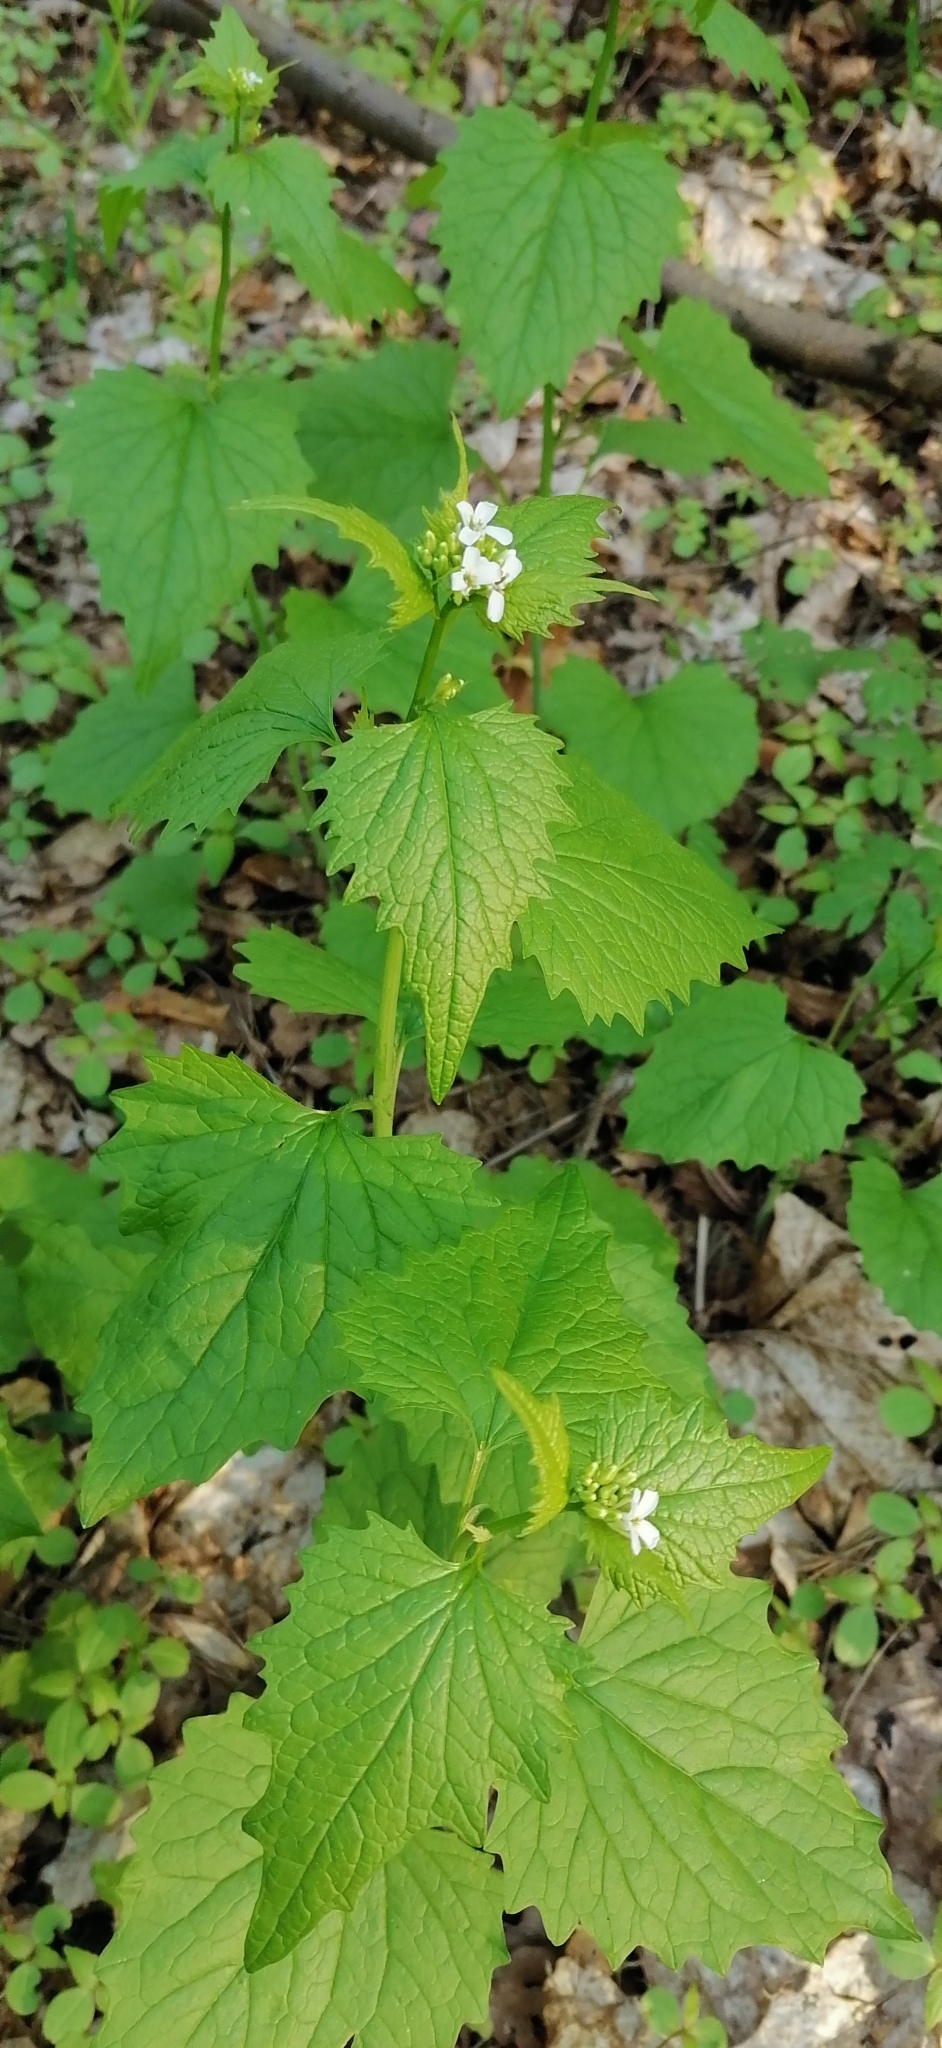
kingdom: Plantae
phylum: Tracheophyta
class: Magnoliopsida
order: Brassicales
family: Brassicaceae
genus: Alliaria
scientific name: Alliaria petiolata
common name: Garlic mustard
